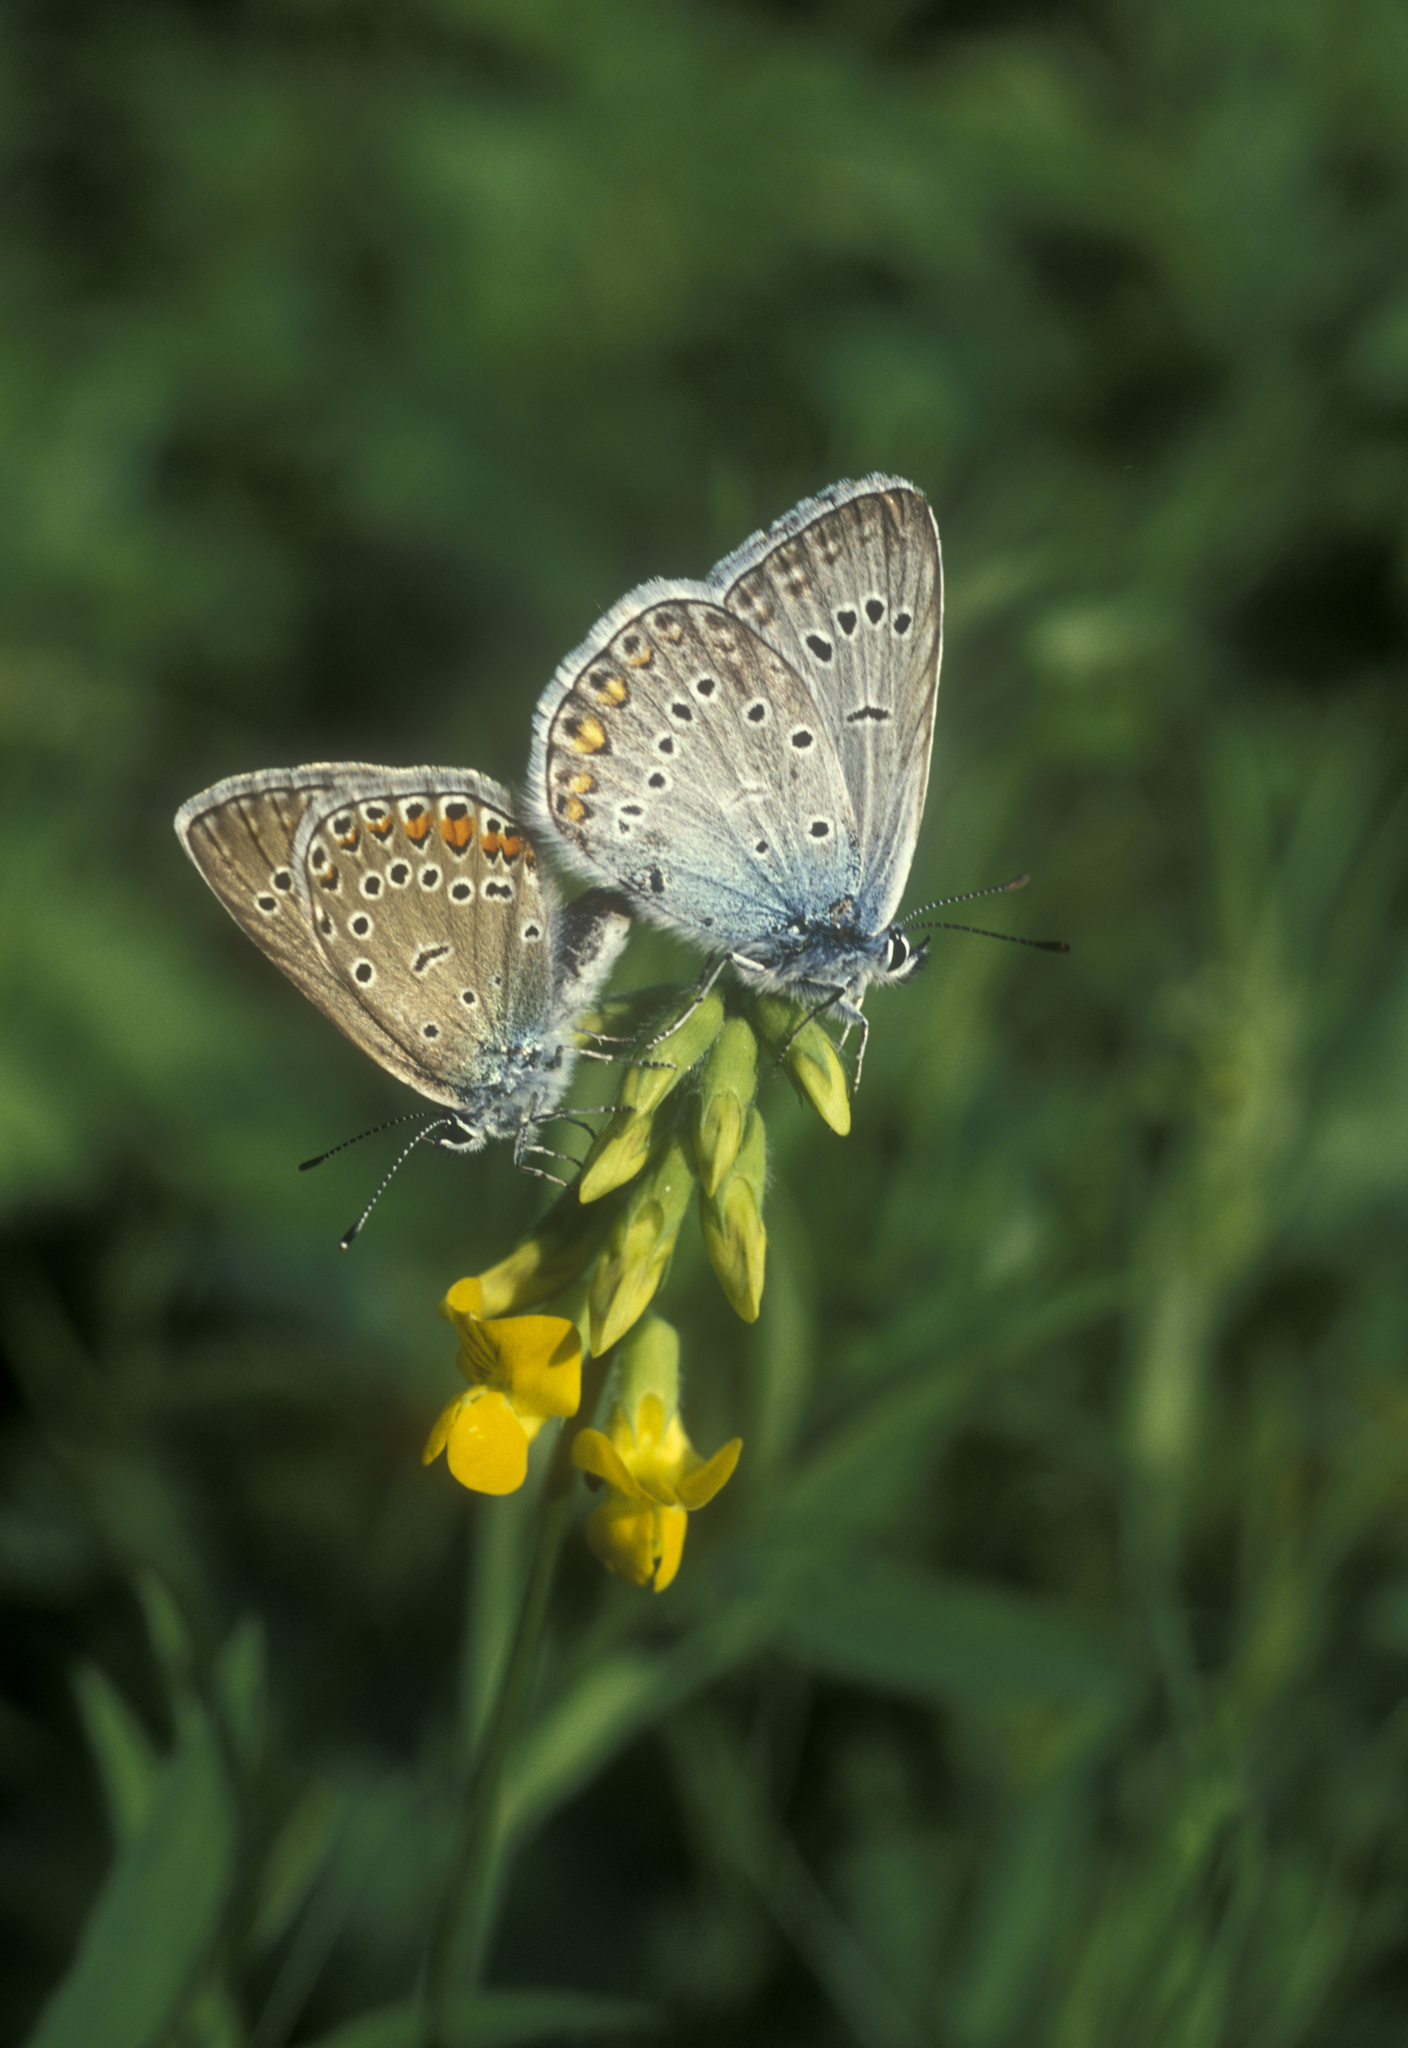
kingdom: Animalia
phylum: Arthropoda
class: Insecta
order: Lepidoptera
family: Lycaenidae
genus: Plebejus
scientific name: Plebejus amanda
